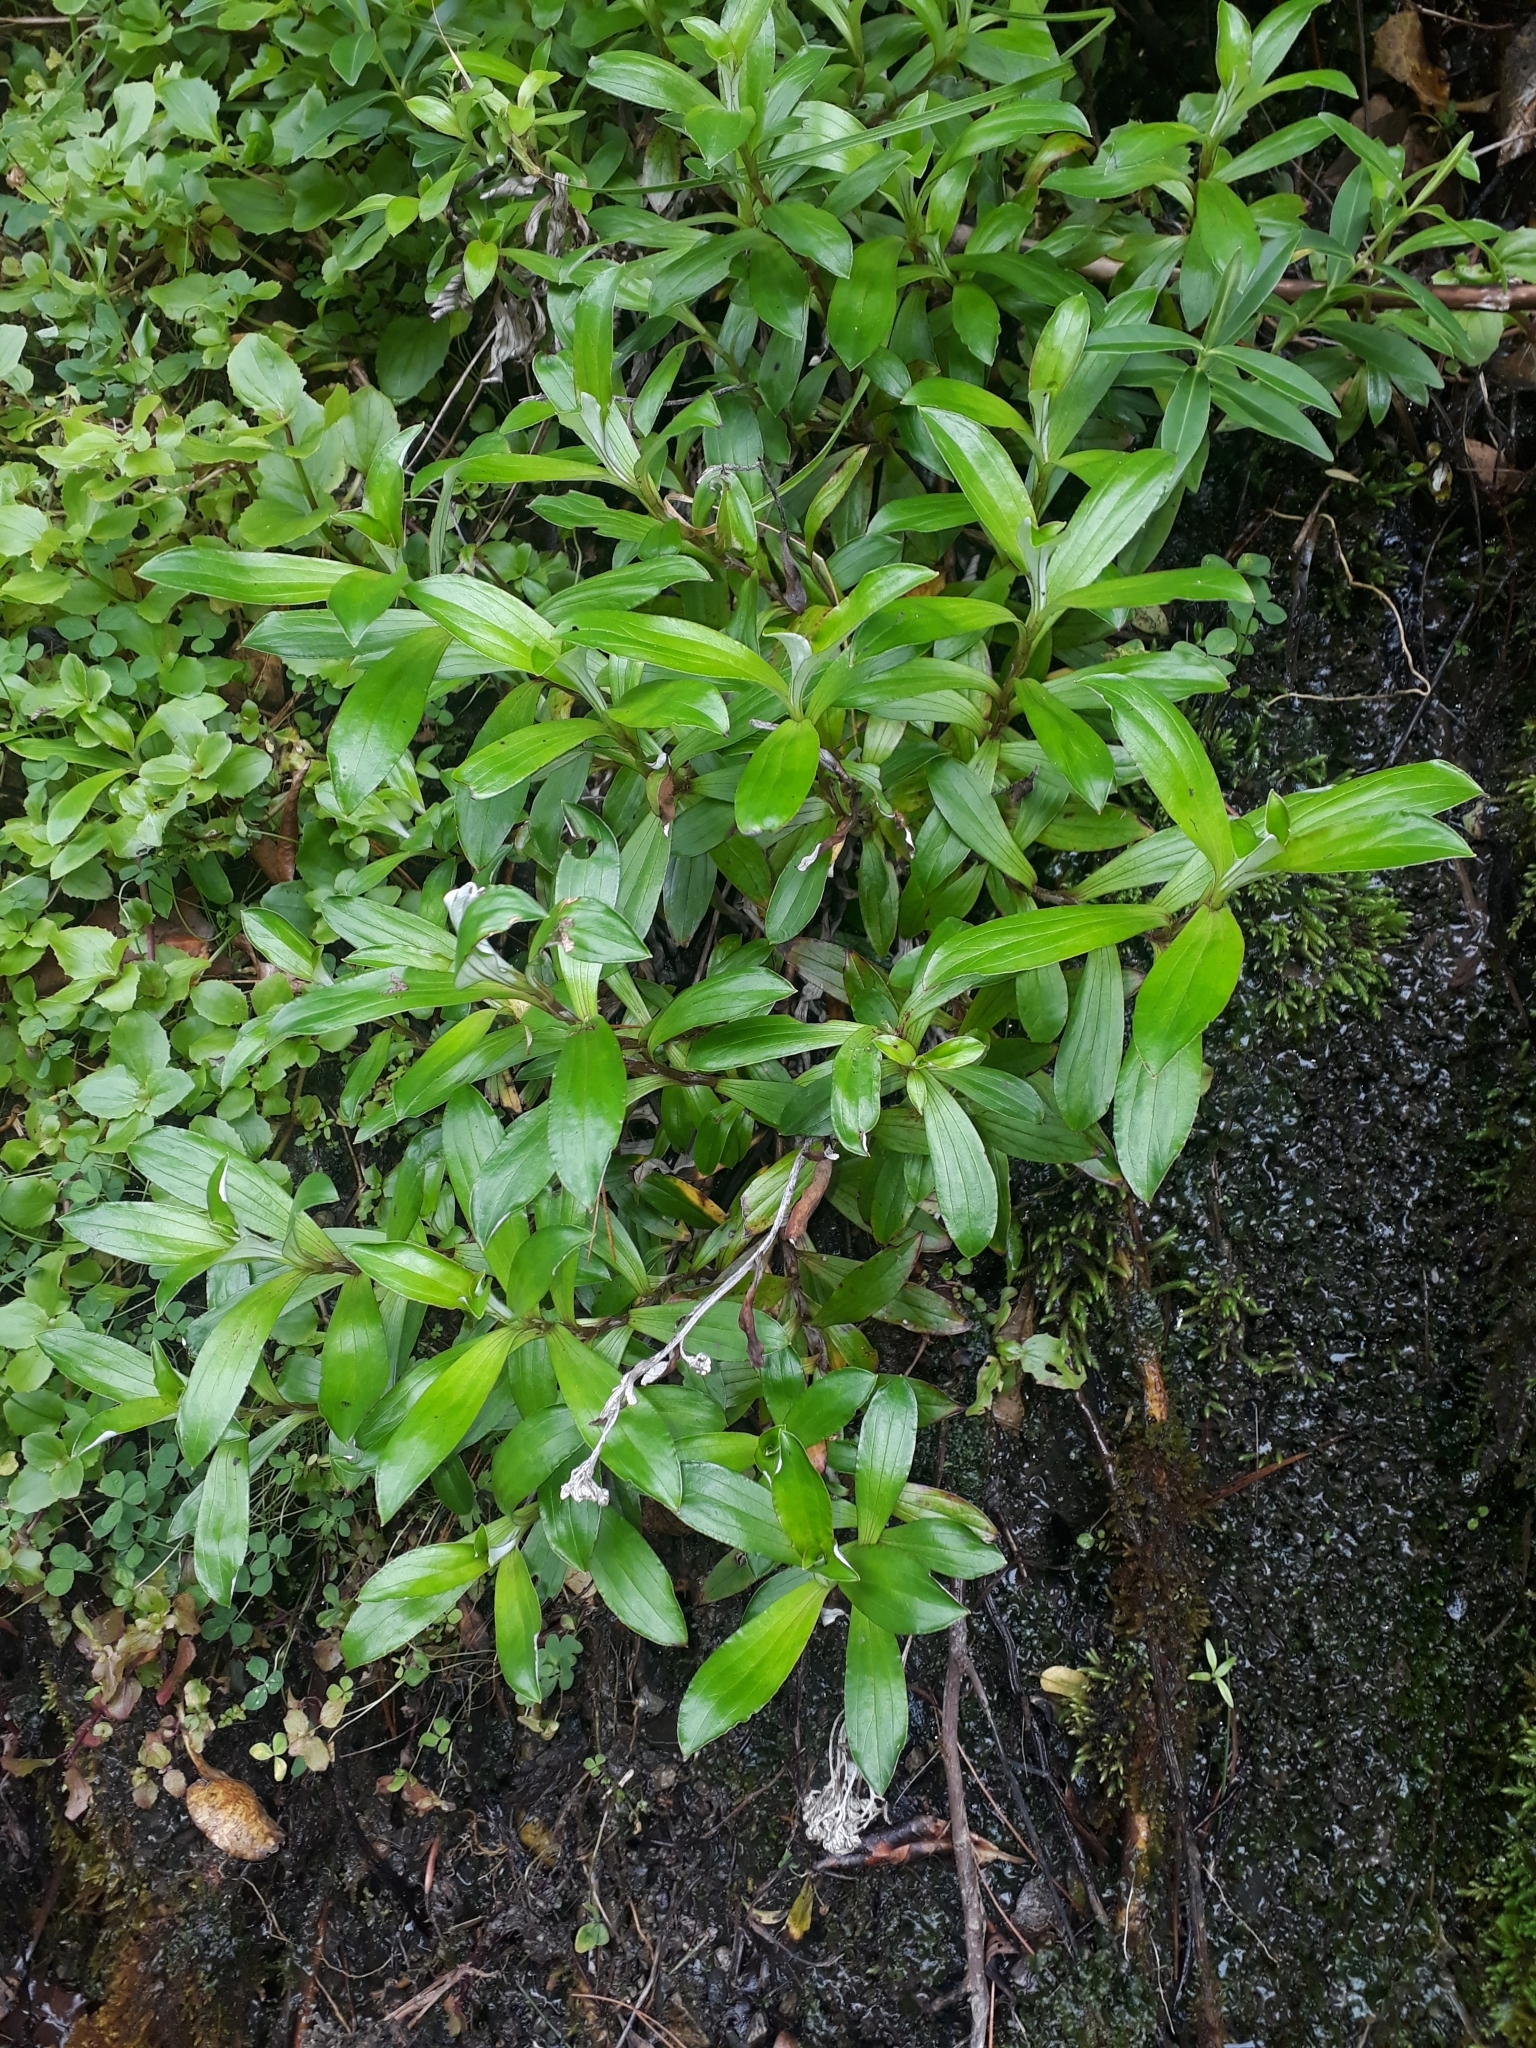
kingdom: Plantae
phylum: Tracheophyta
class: Magnoliopsida
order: Asterales
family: Asteraceae
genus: Anaphalioides
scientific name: Anaphalioides trinervis
